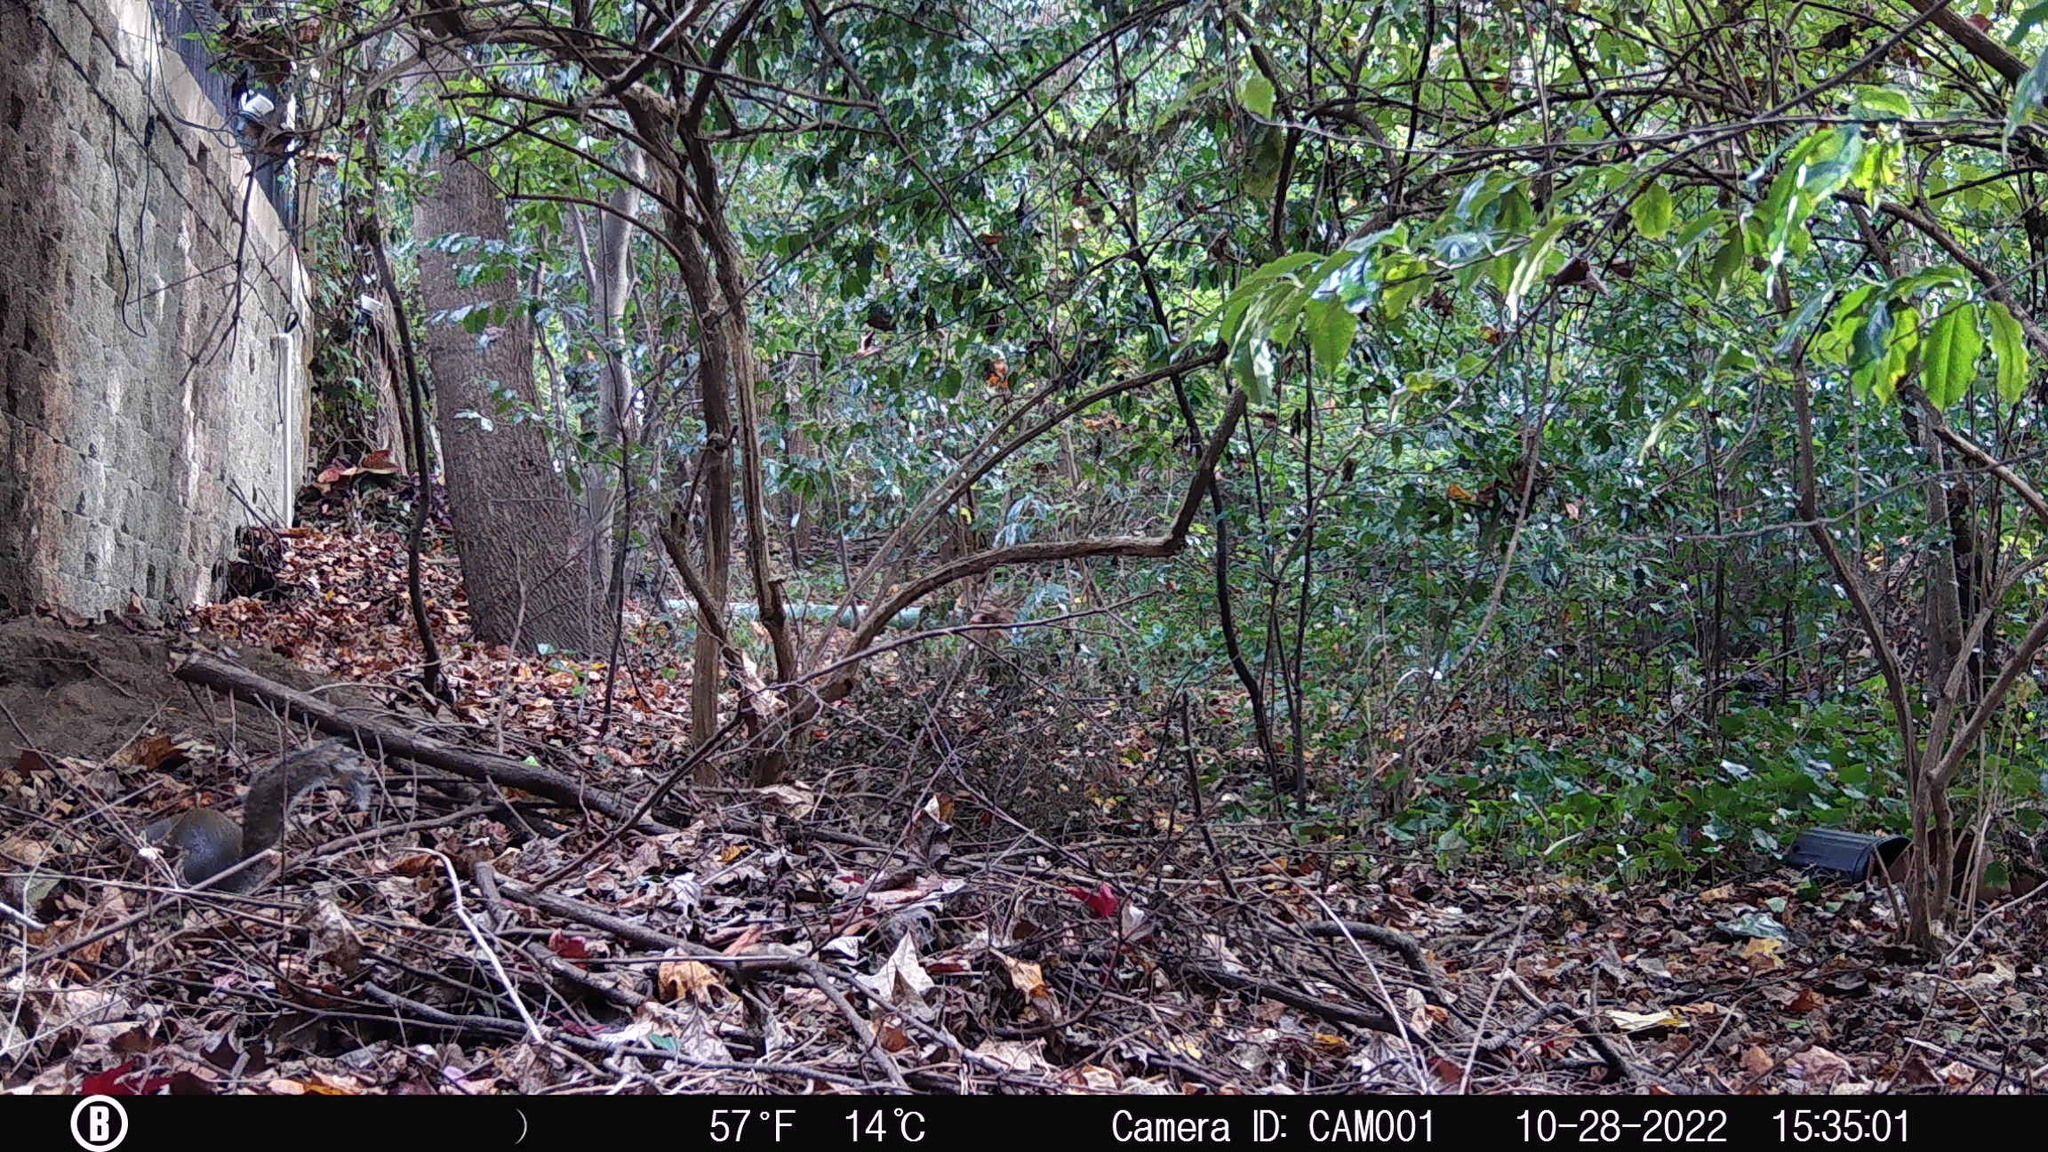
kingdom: Animalia
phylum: Chordata
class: Mammalia
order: Rodentia
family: Sciuridae
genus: Sciurus
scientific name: Sciurus carolinensis
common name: Eastern gray squirrel
